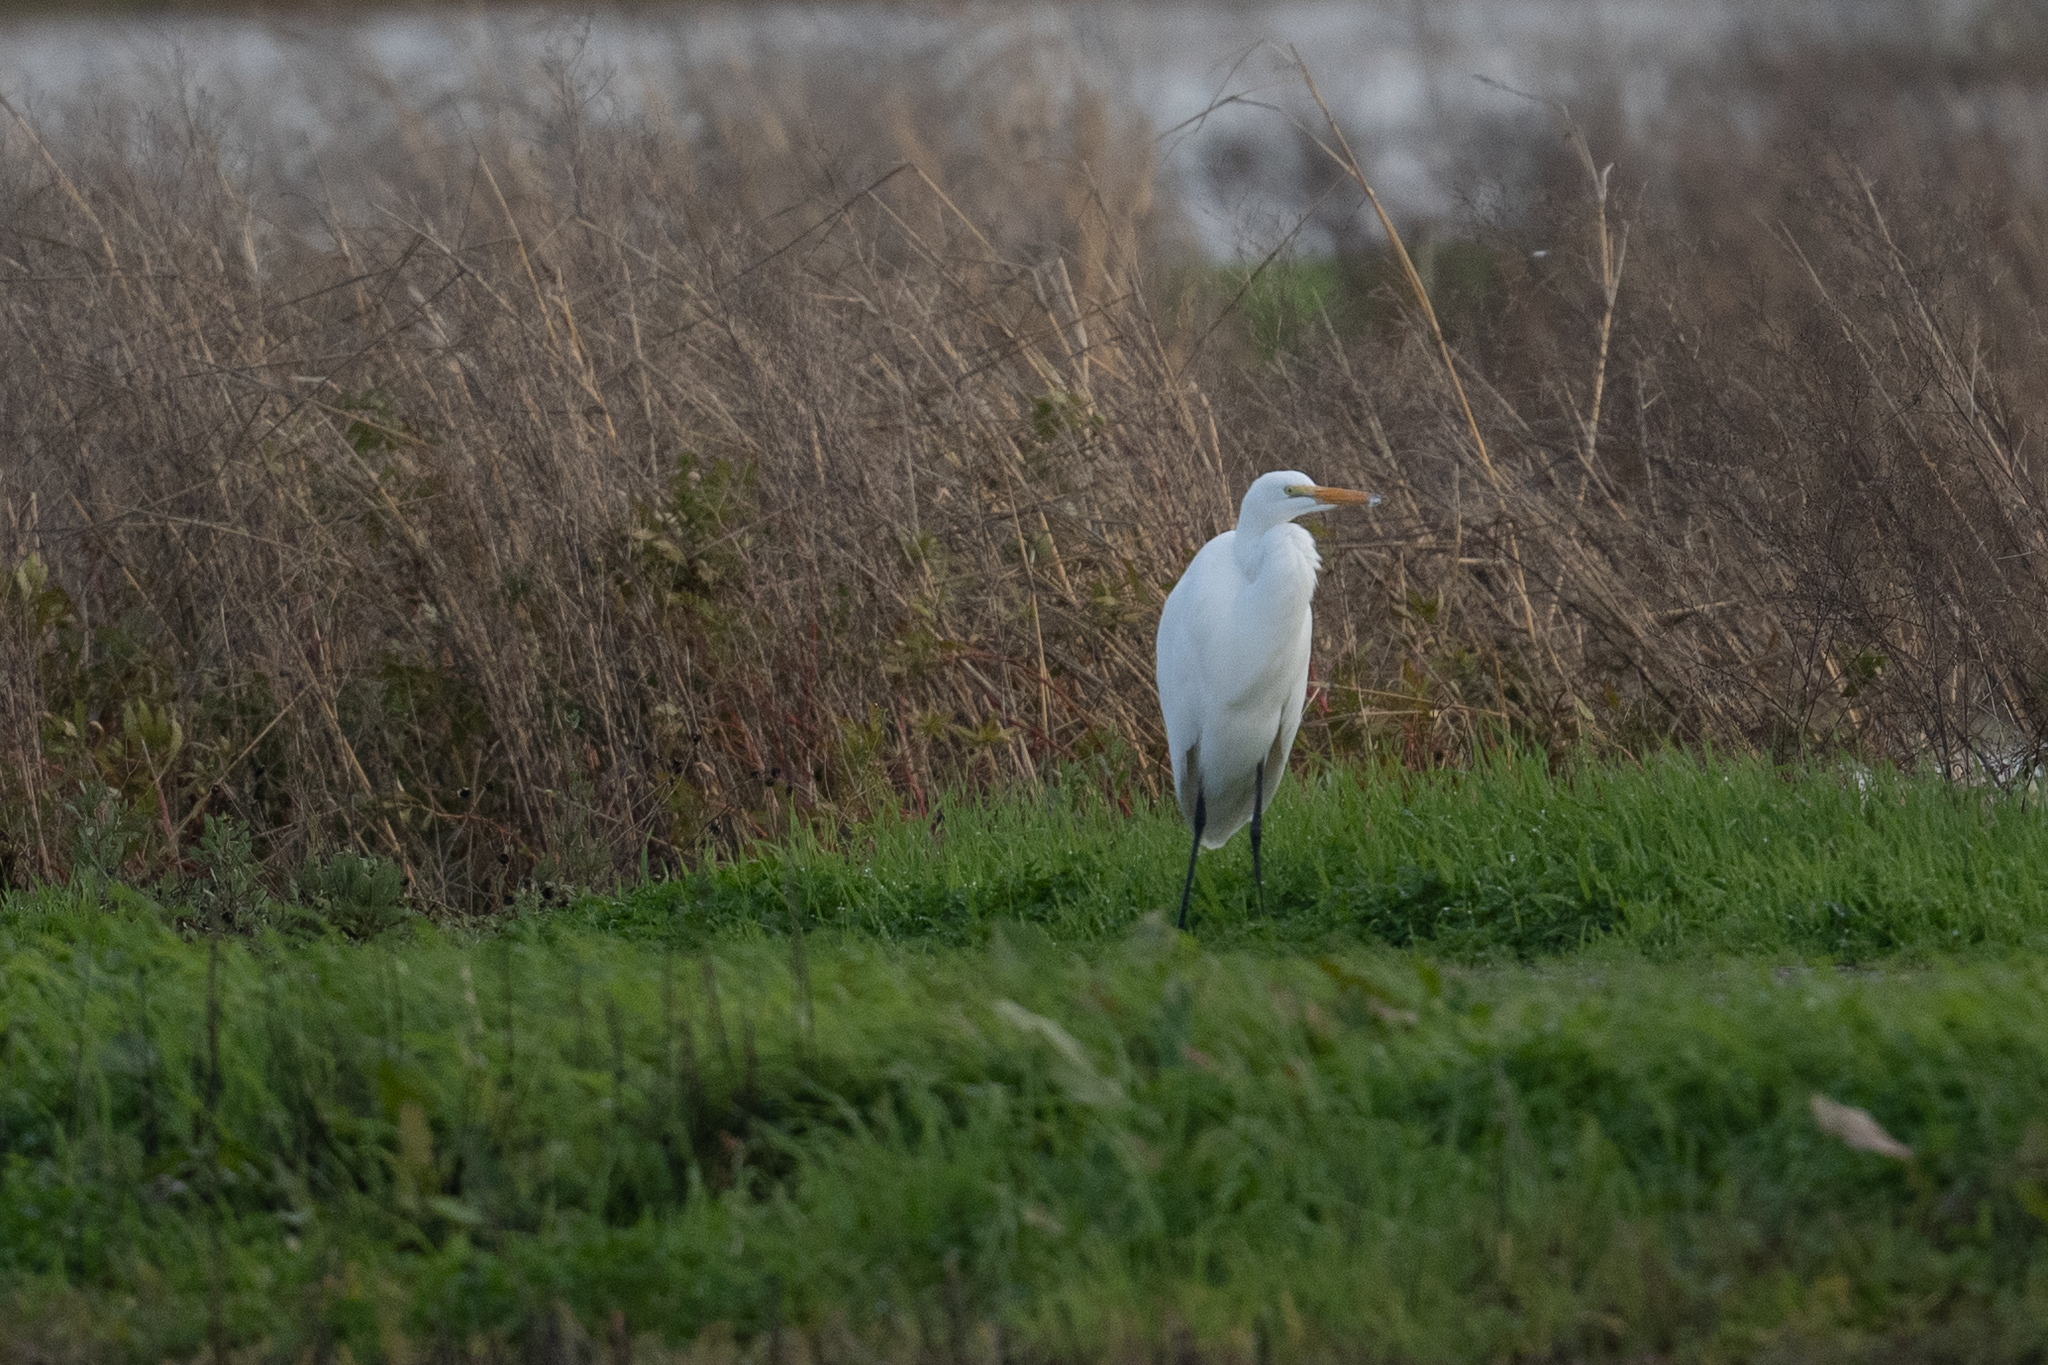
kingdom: Animalia
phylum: Chordata
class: Aves
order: Pelecaniformes
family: Ardeidae
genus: Ardea
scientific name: Ardea alba
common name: Great egret
